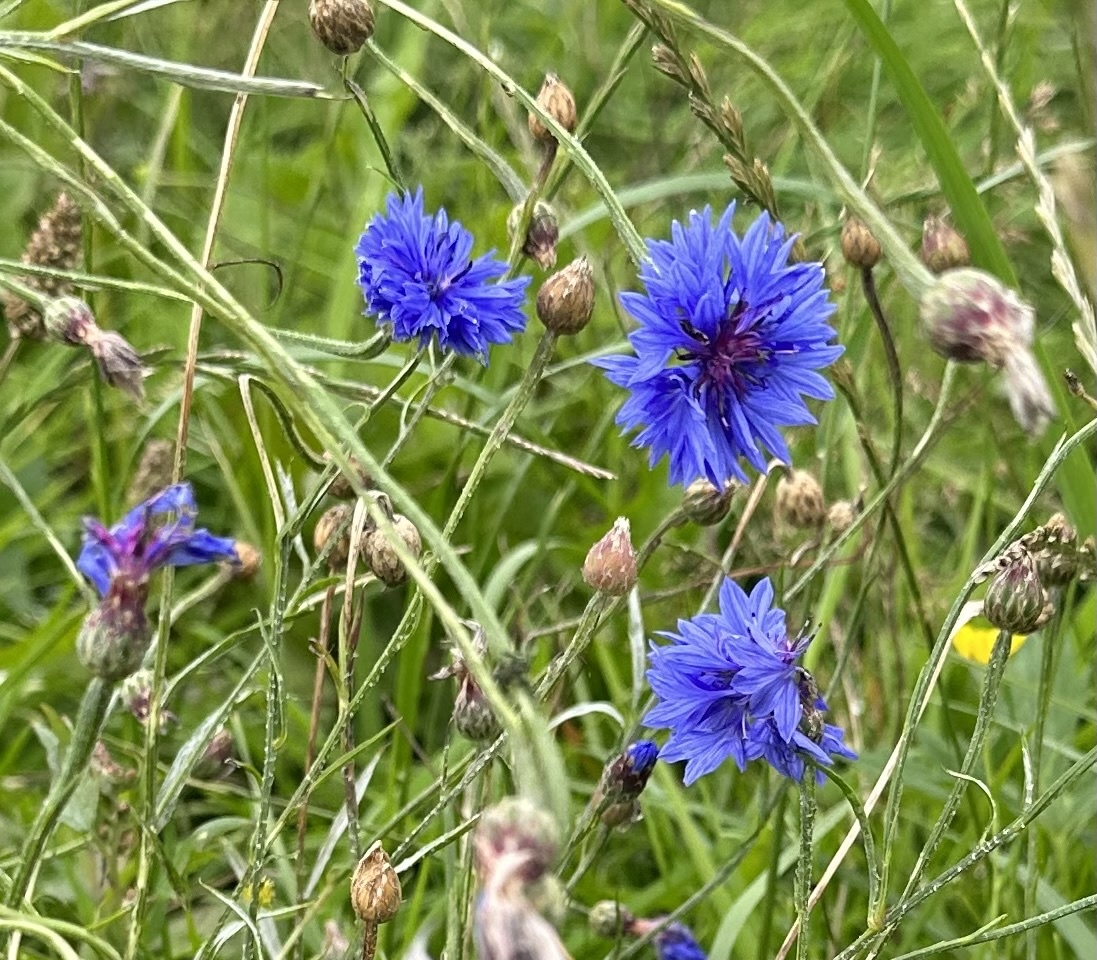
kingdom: Plantae
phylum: Tracheophyta
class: Magnoliopsida
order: Asterales
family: Asteraceae
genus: Centaurea
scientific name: Centaurea cyanus
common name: Cornflower
